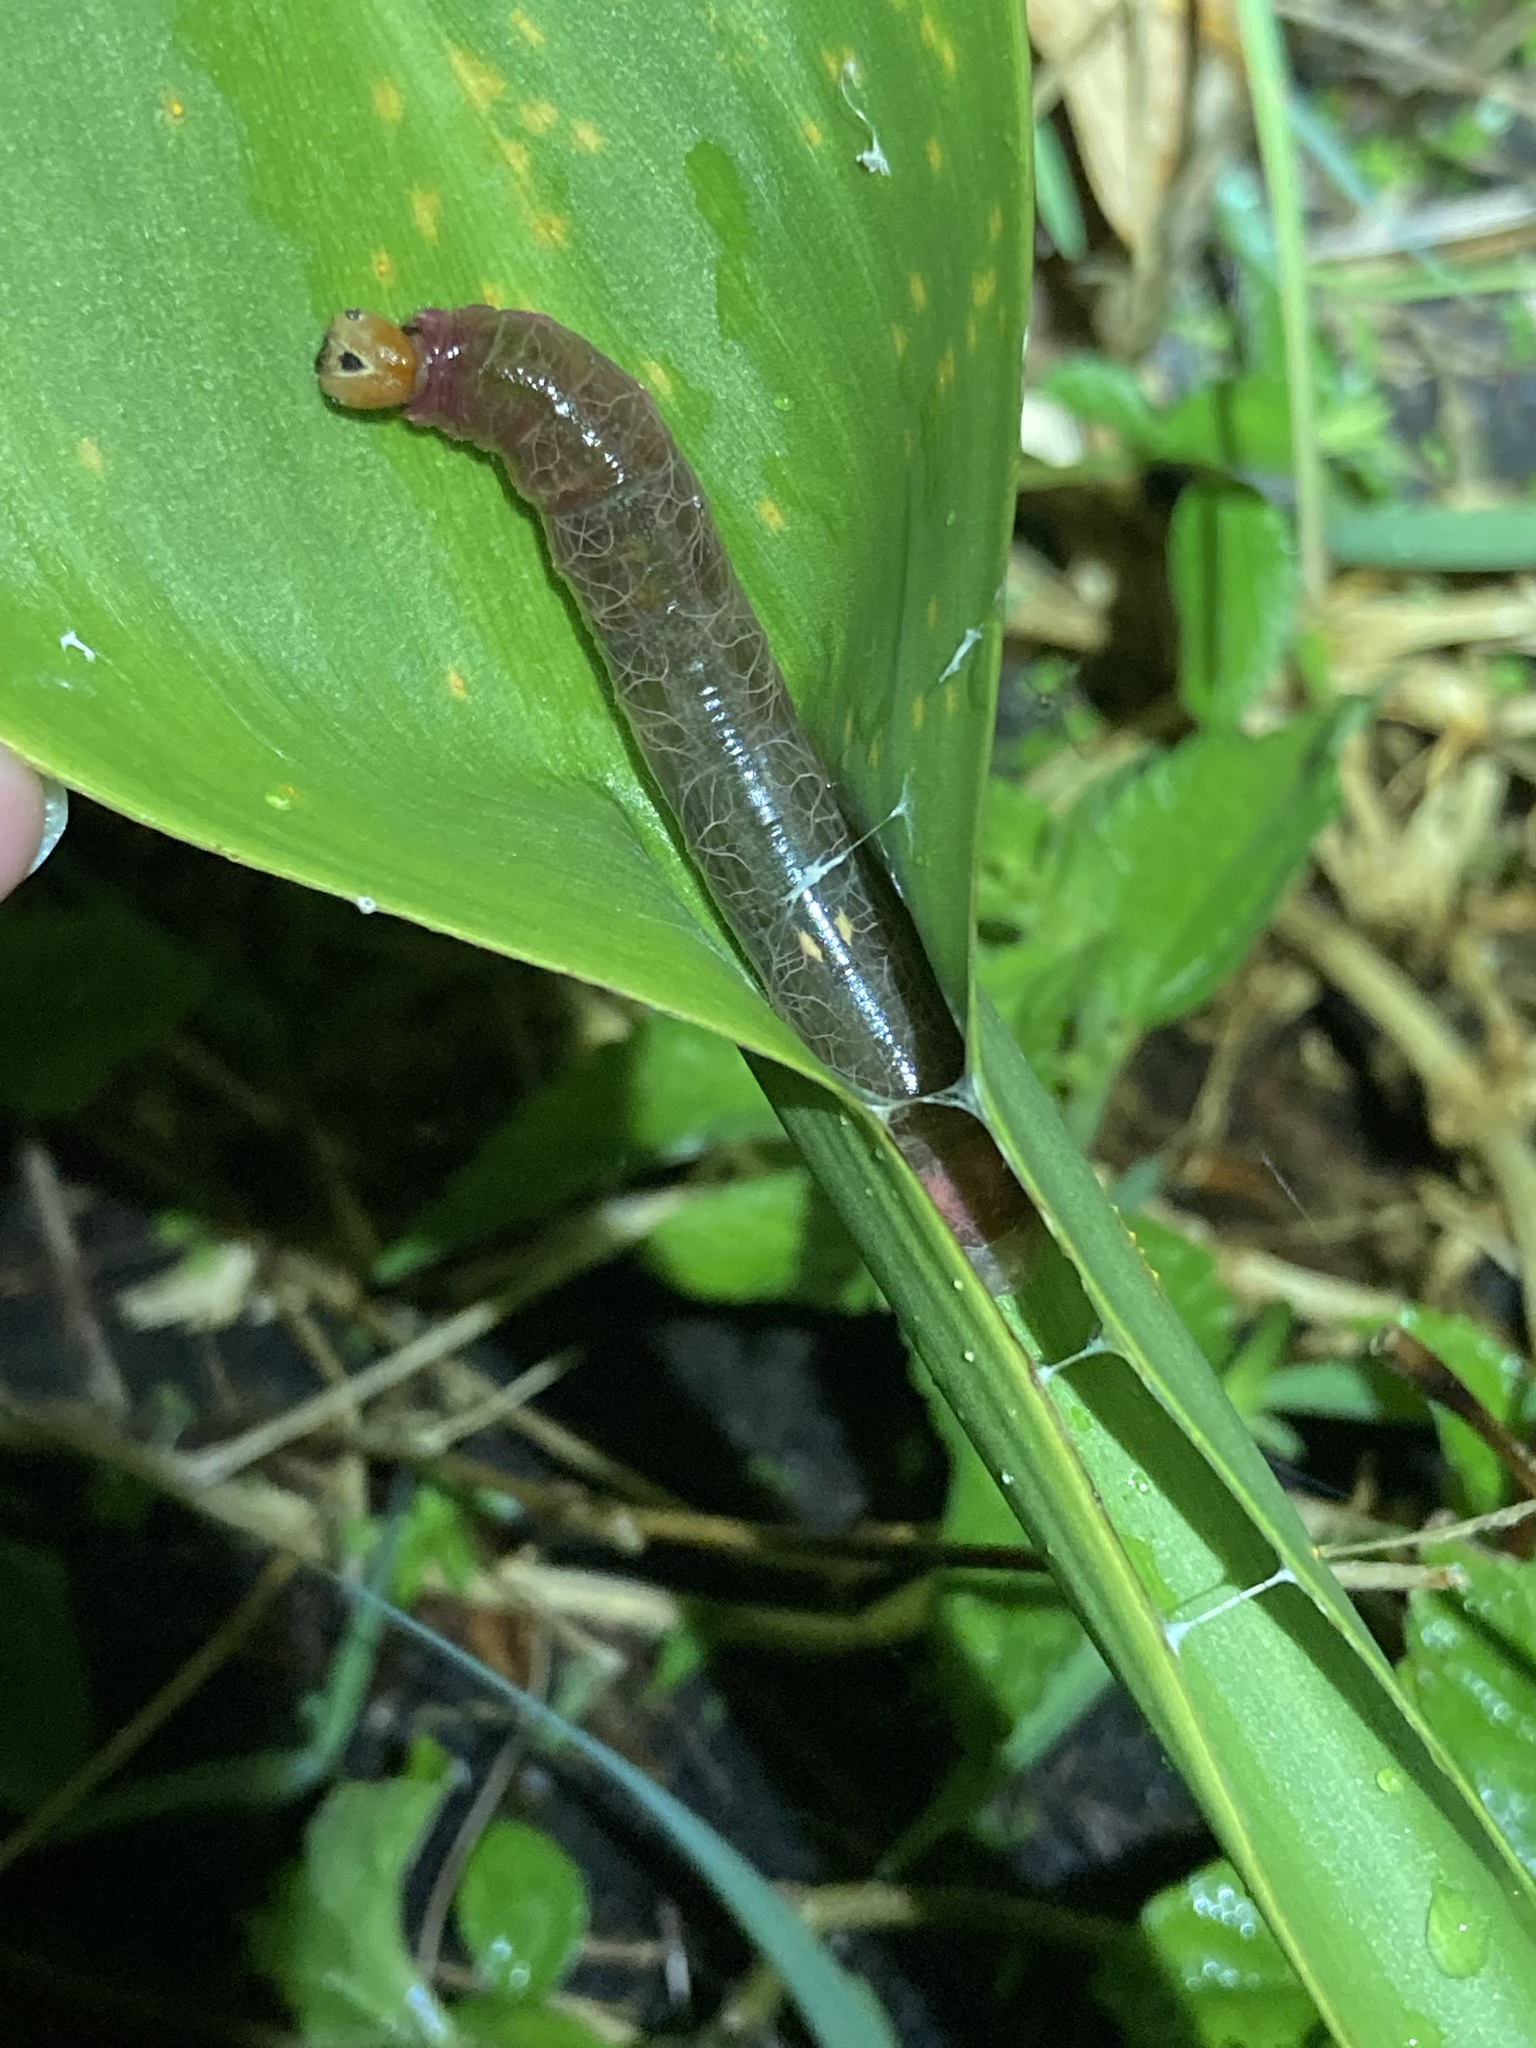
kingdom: Animalia
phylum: Arthropoda
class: Insecta
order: Lepidoptera
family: Hesperiidae
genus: Calpodes
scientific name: Calpodes ethlius
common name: Brazilian skipper
